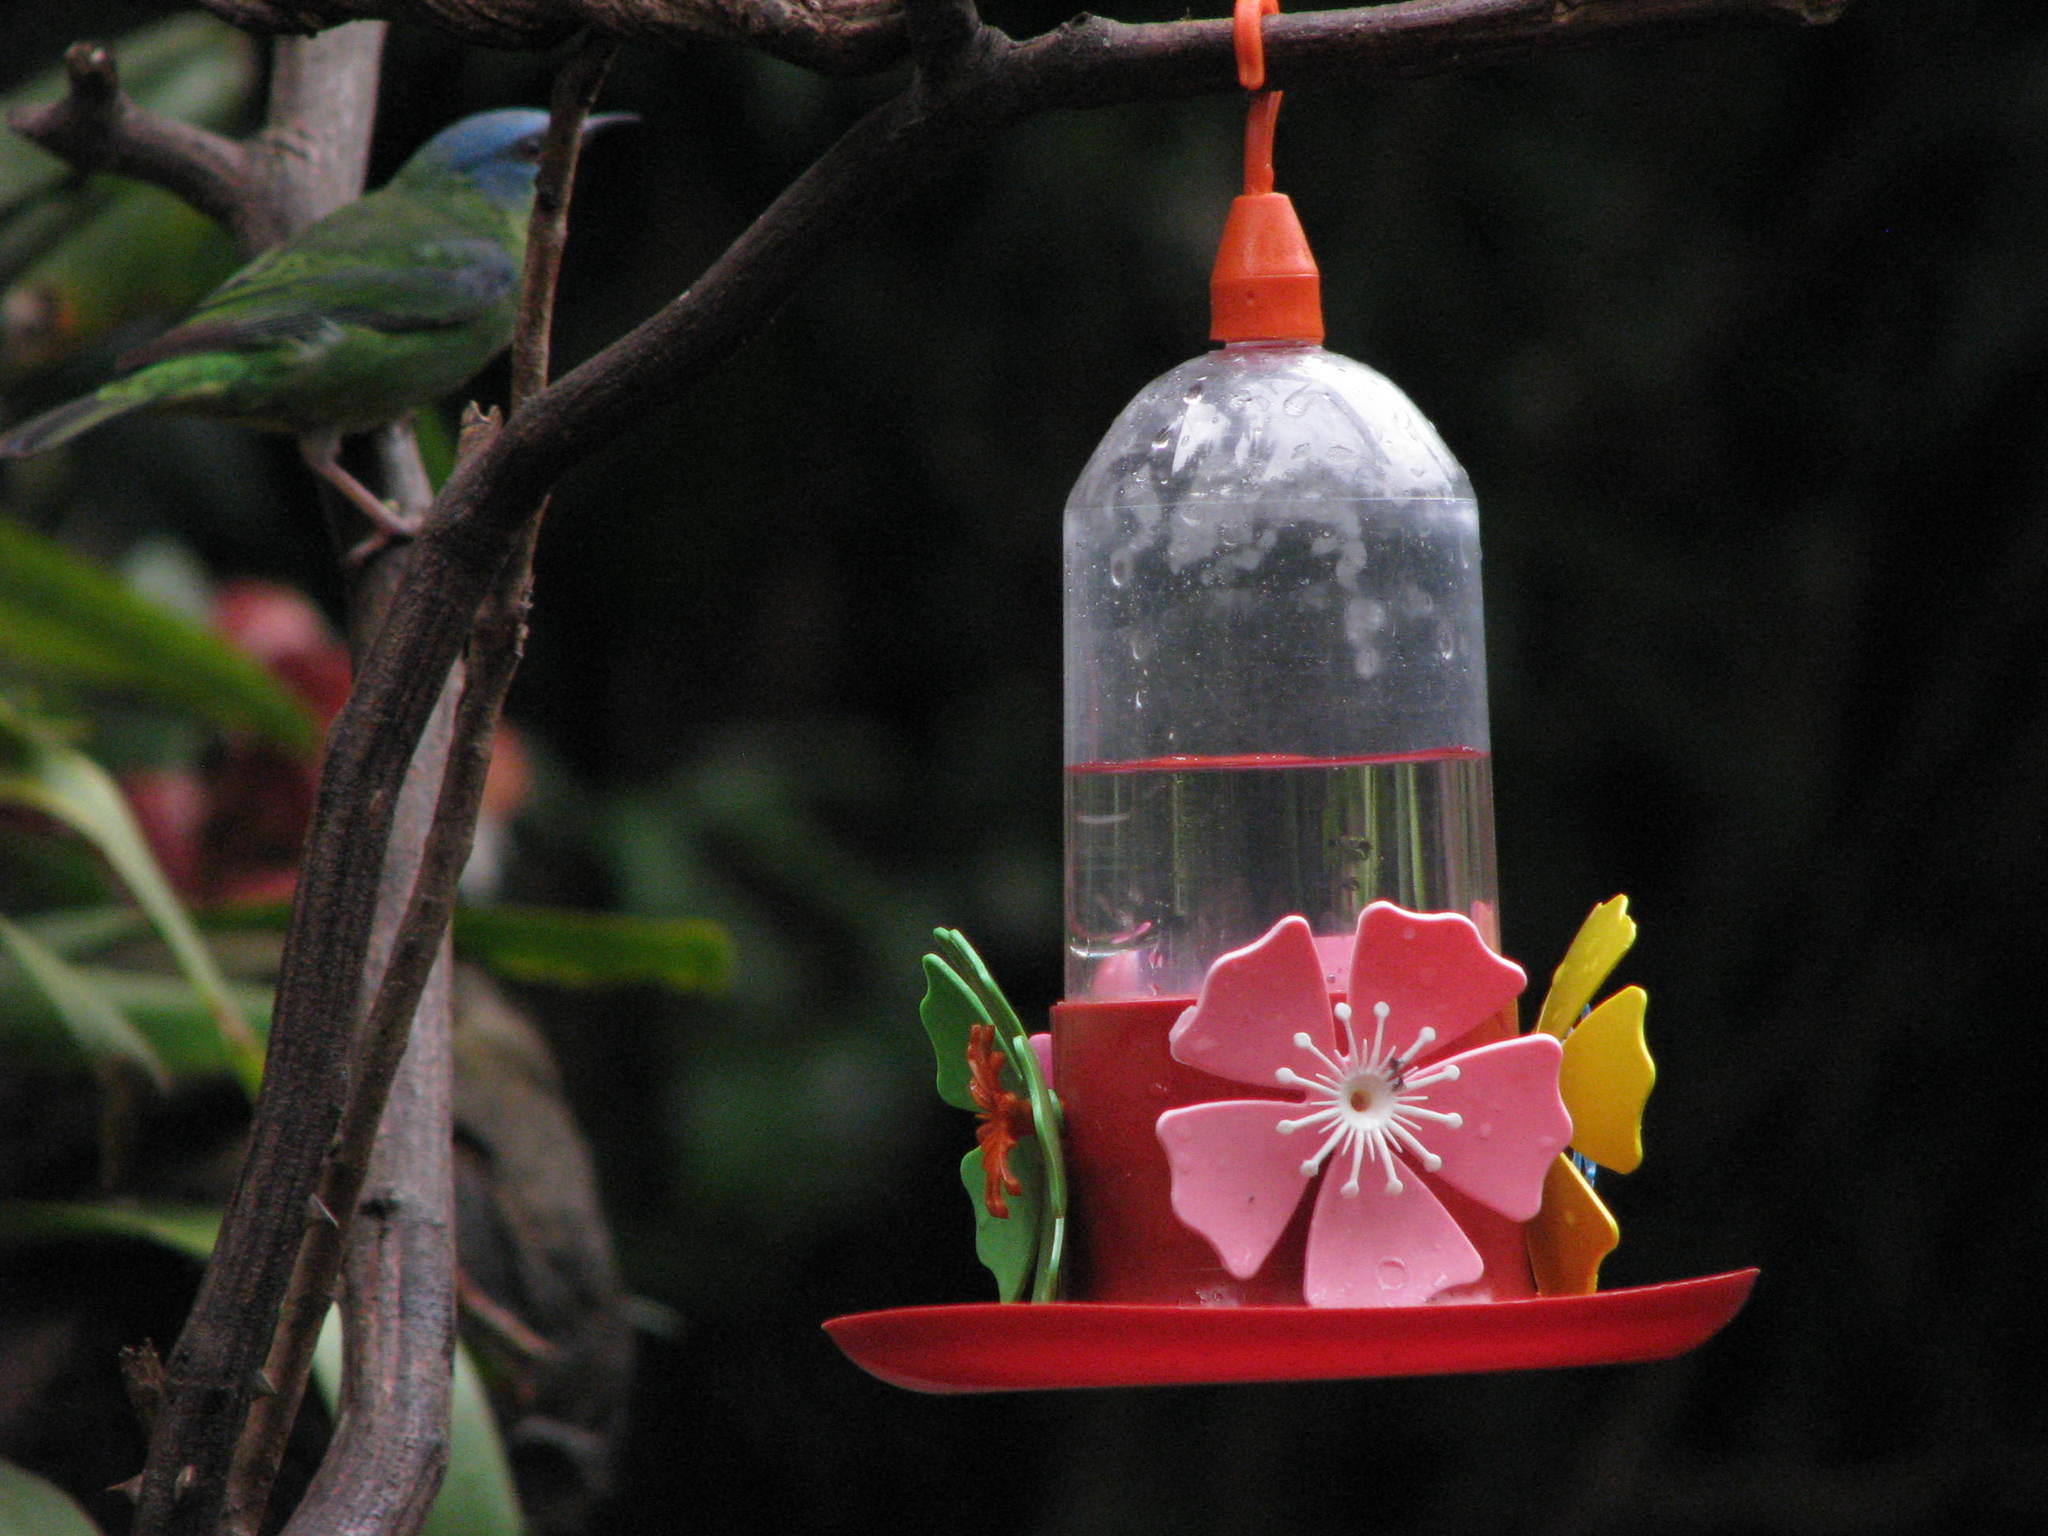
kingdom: Animalia
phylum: Chordata
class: Aves
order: Passeriformes
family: Thraupidae
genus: Dacnis
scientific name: Dacnis cayana
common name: Blue dacnis
